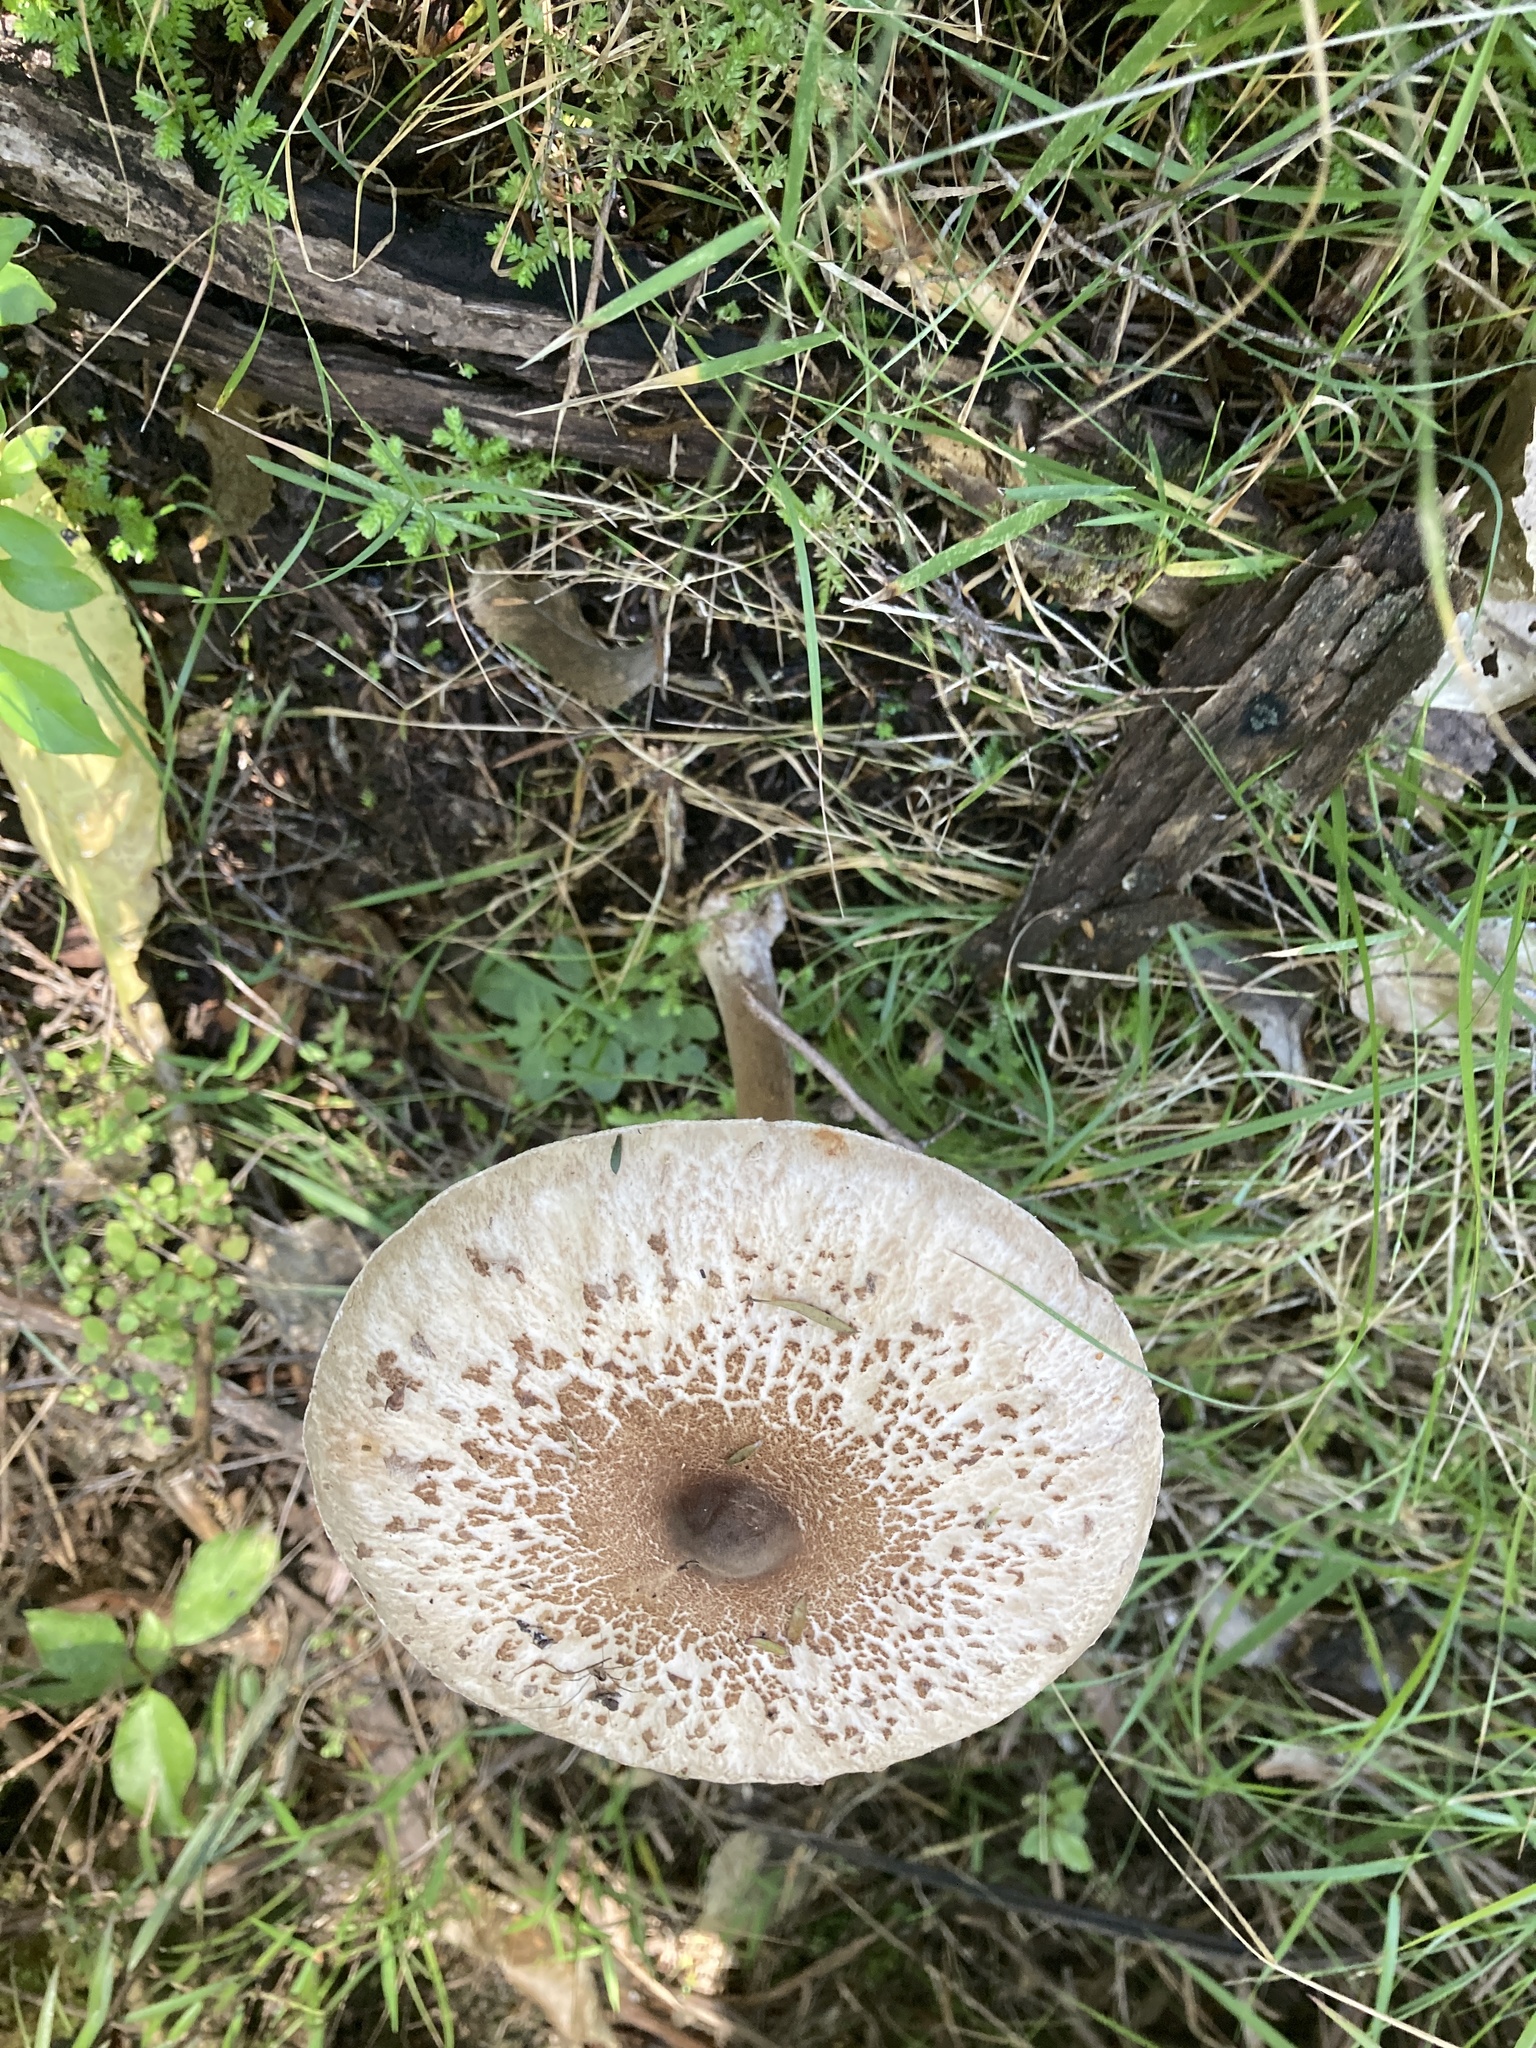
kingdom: Fungi
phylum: Basidiomycota
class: Agaricomycetes
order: Agaricales
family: Agaricaceae
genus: Macrolepiota
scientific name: Macrolepiota clelandii
